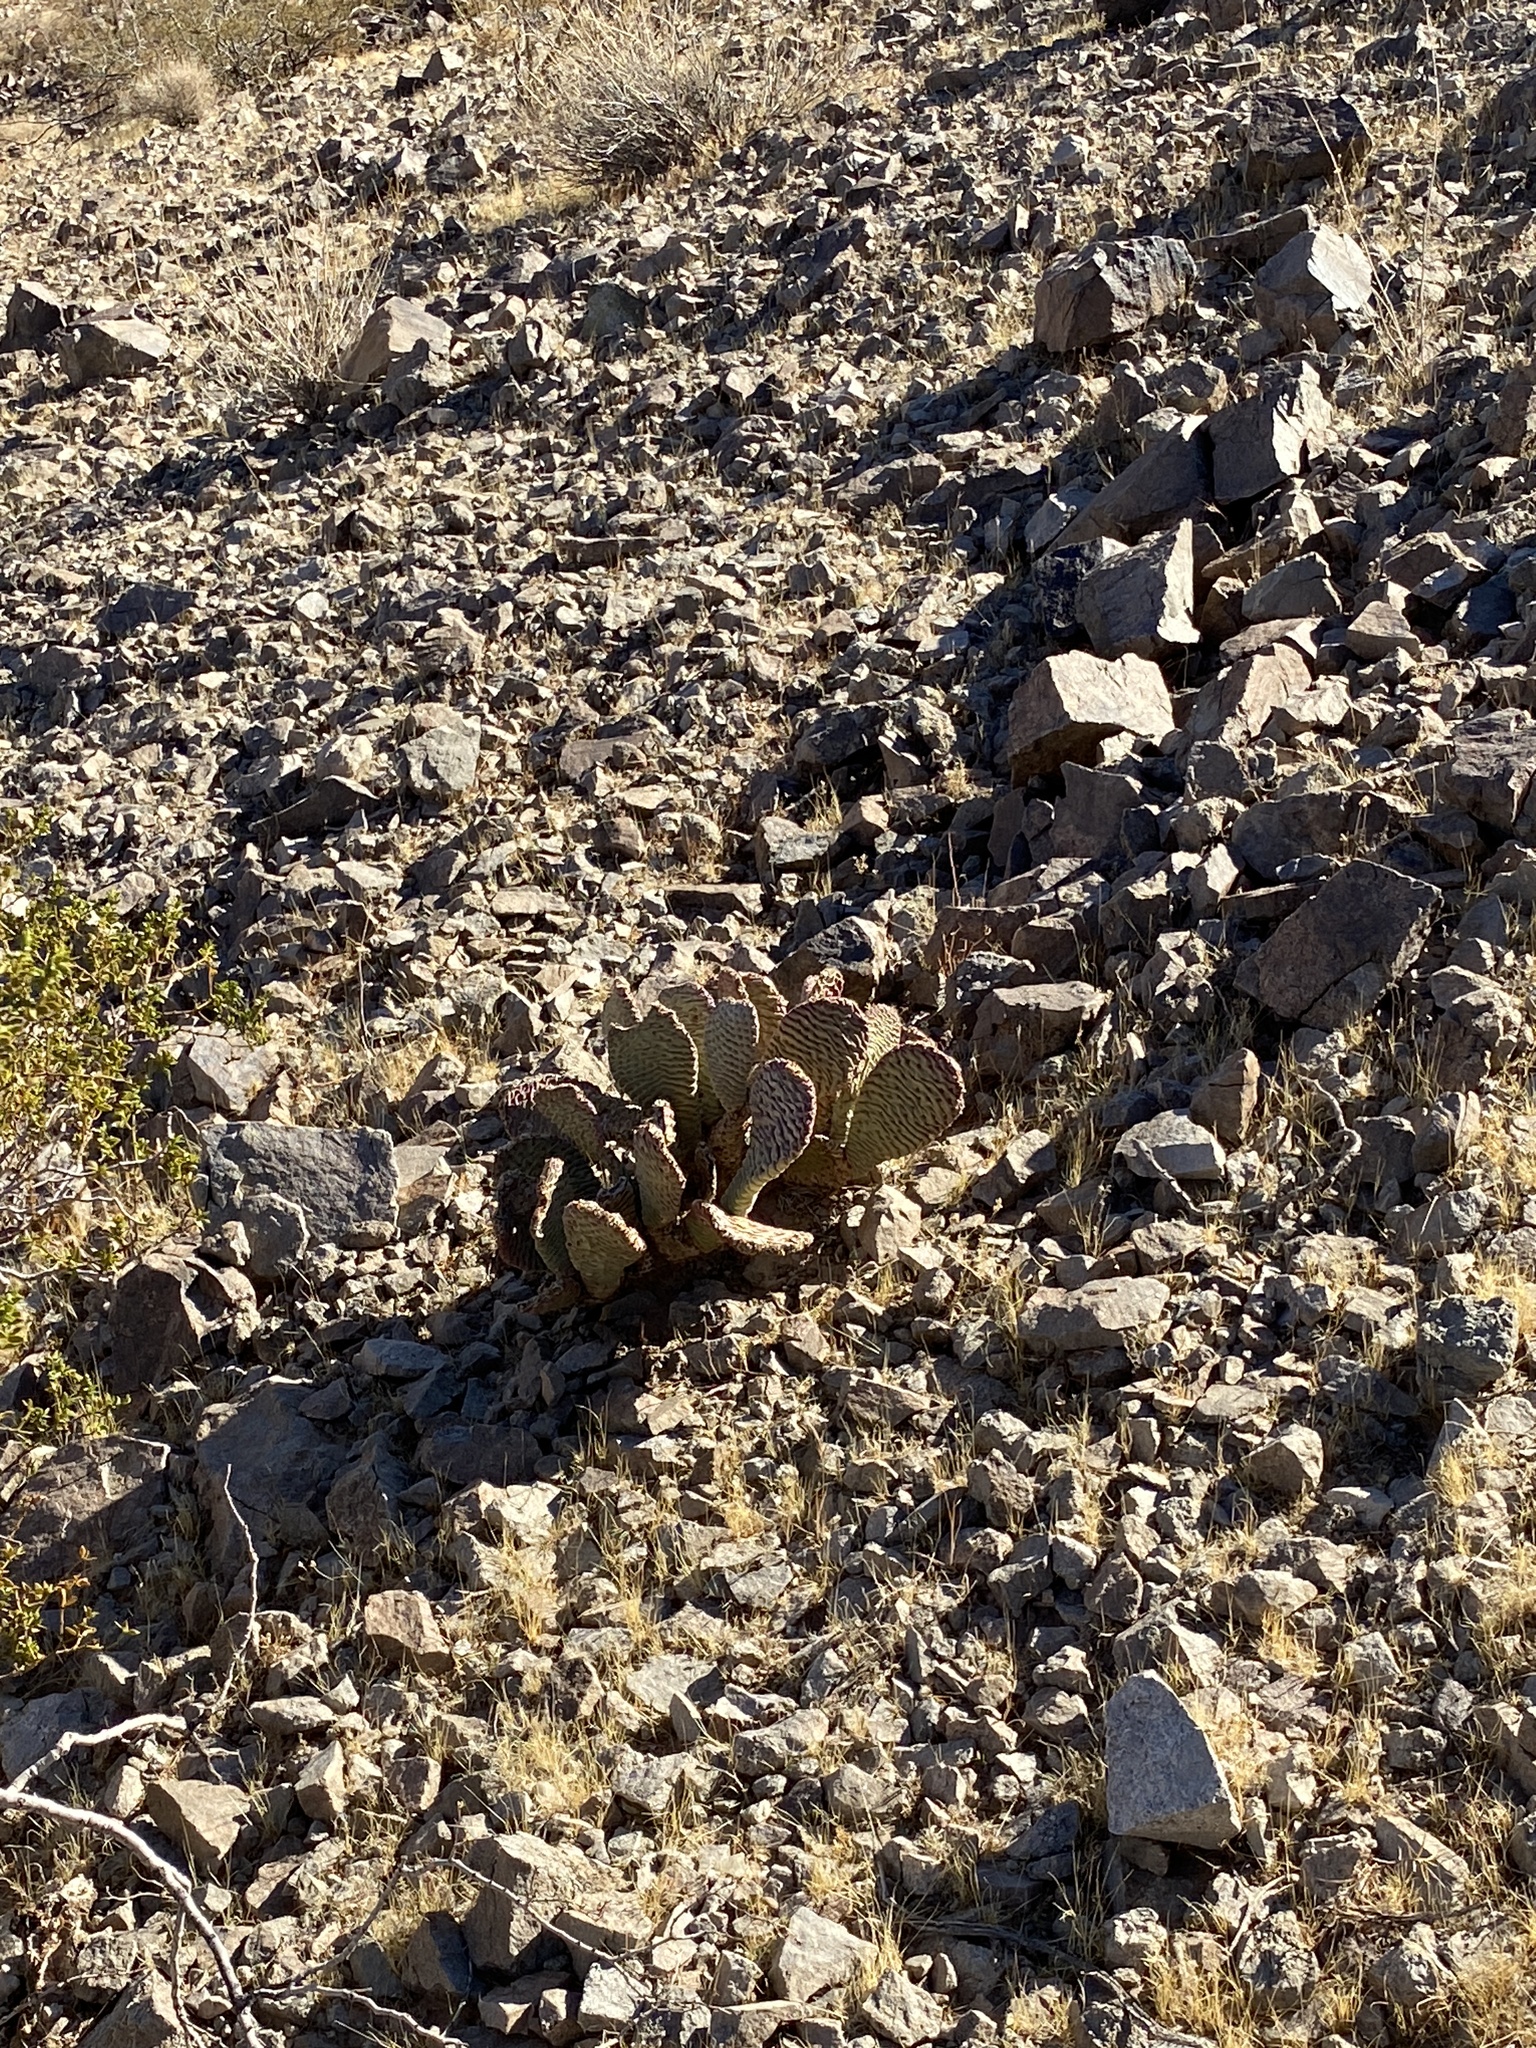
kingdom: Plantae
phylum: Tracheophyta
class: Magnoliopsida
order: Caryophyllales
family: Cactaceae
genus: Opuntia
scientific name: Opuntia basilaris
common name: Beavertail prickly-pear
